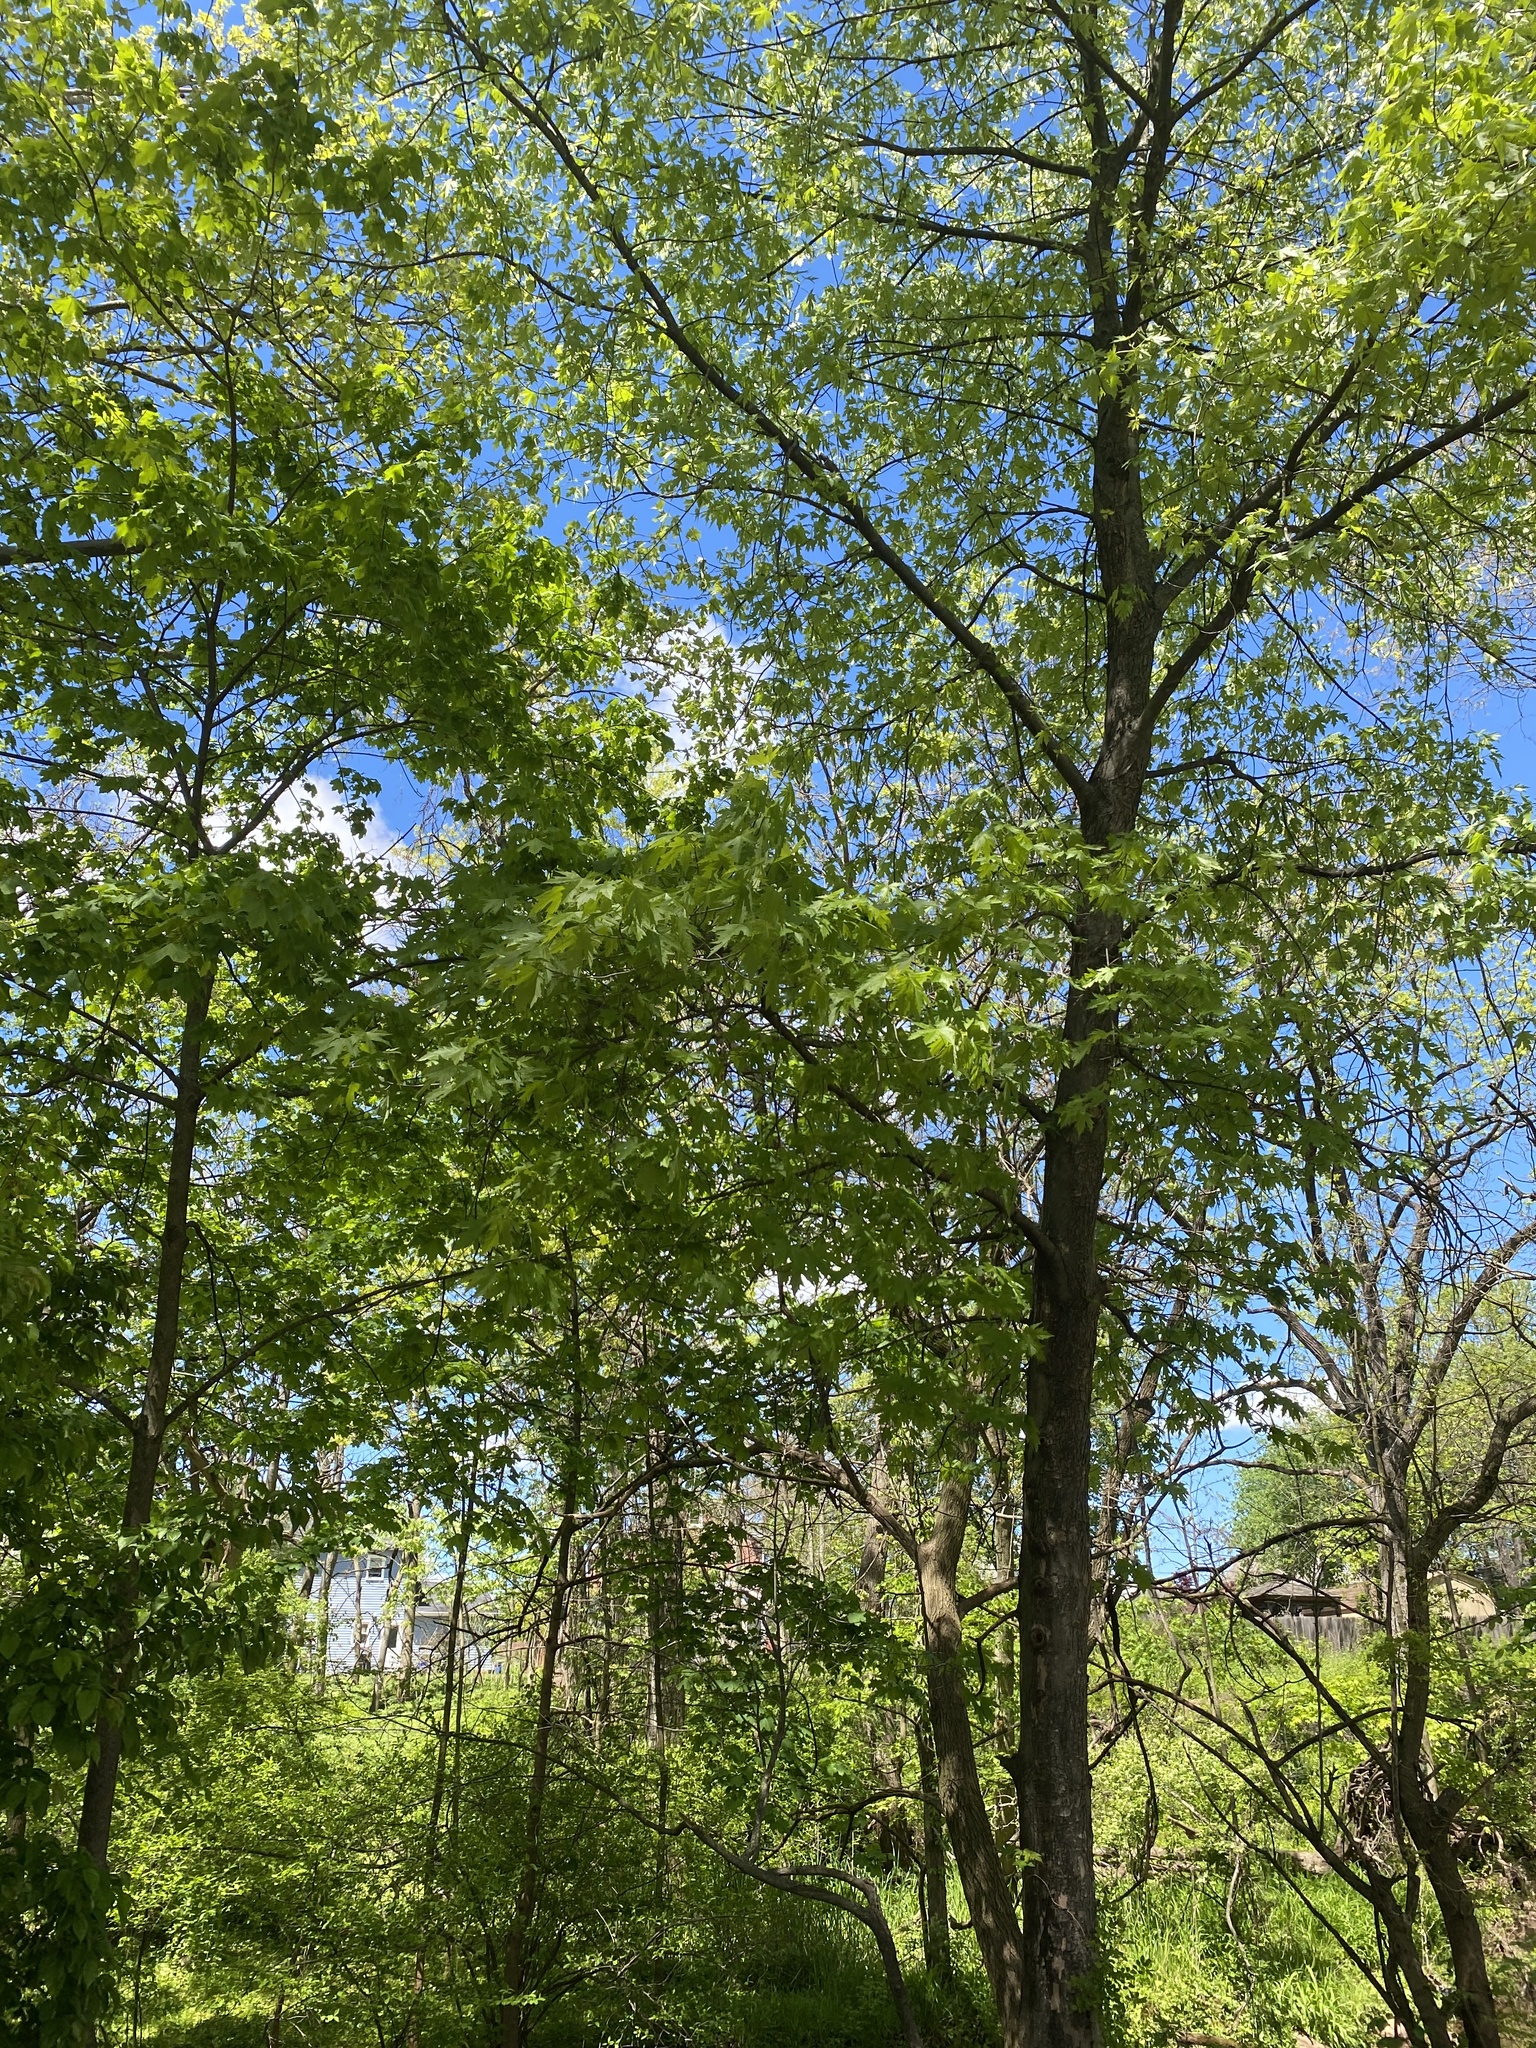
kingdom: Plantae
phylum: Tracheophyta
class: Magnoliopsida
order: Sapindales
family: Sapindaceae
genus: Acer
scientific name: Acer saccharinum
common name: Silver maple
